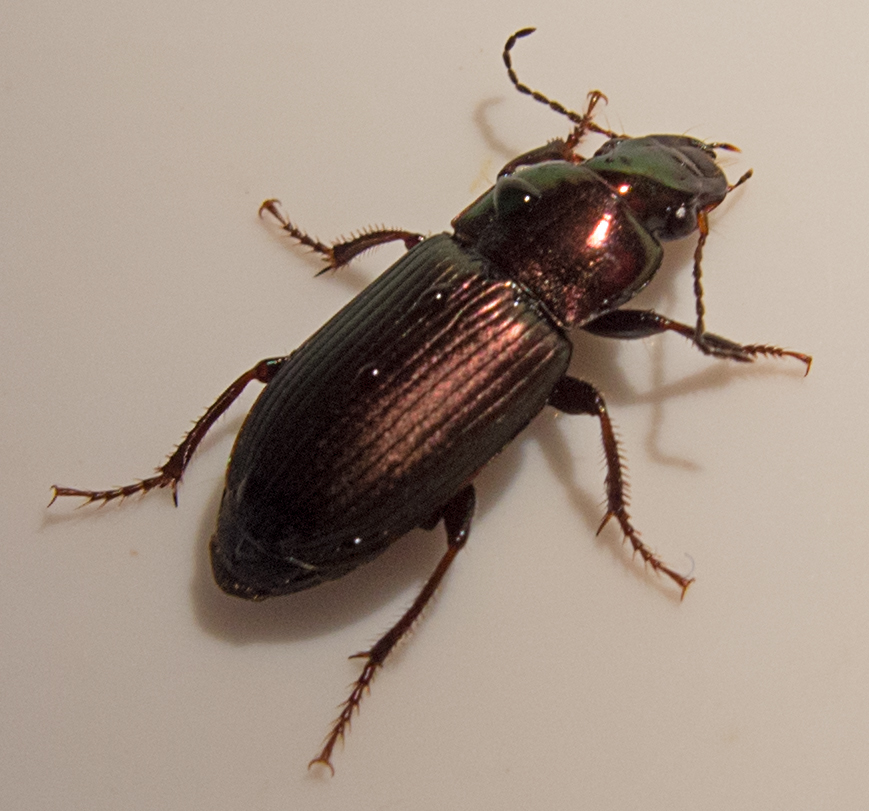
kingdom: Animalia
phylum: Arthropoda
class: Insecta
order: Coleoptera
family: Carabidae
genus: Harpalus
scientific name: Harpalus distinguendus
